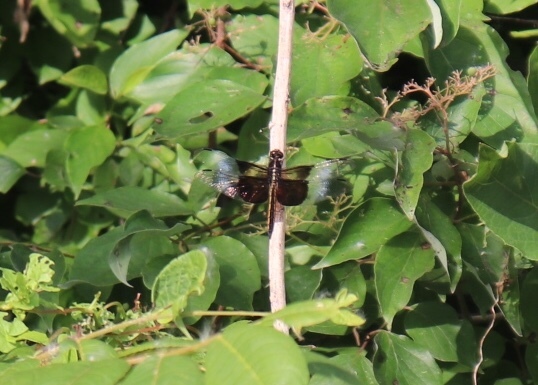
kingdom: Animalia
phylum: Arthropoda
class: Insecta
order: Odonata
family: Libellulidae
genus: Libellula
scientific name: Libellula luctuosa
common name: Widow skimmer
